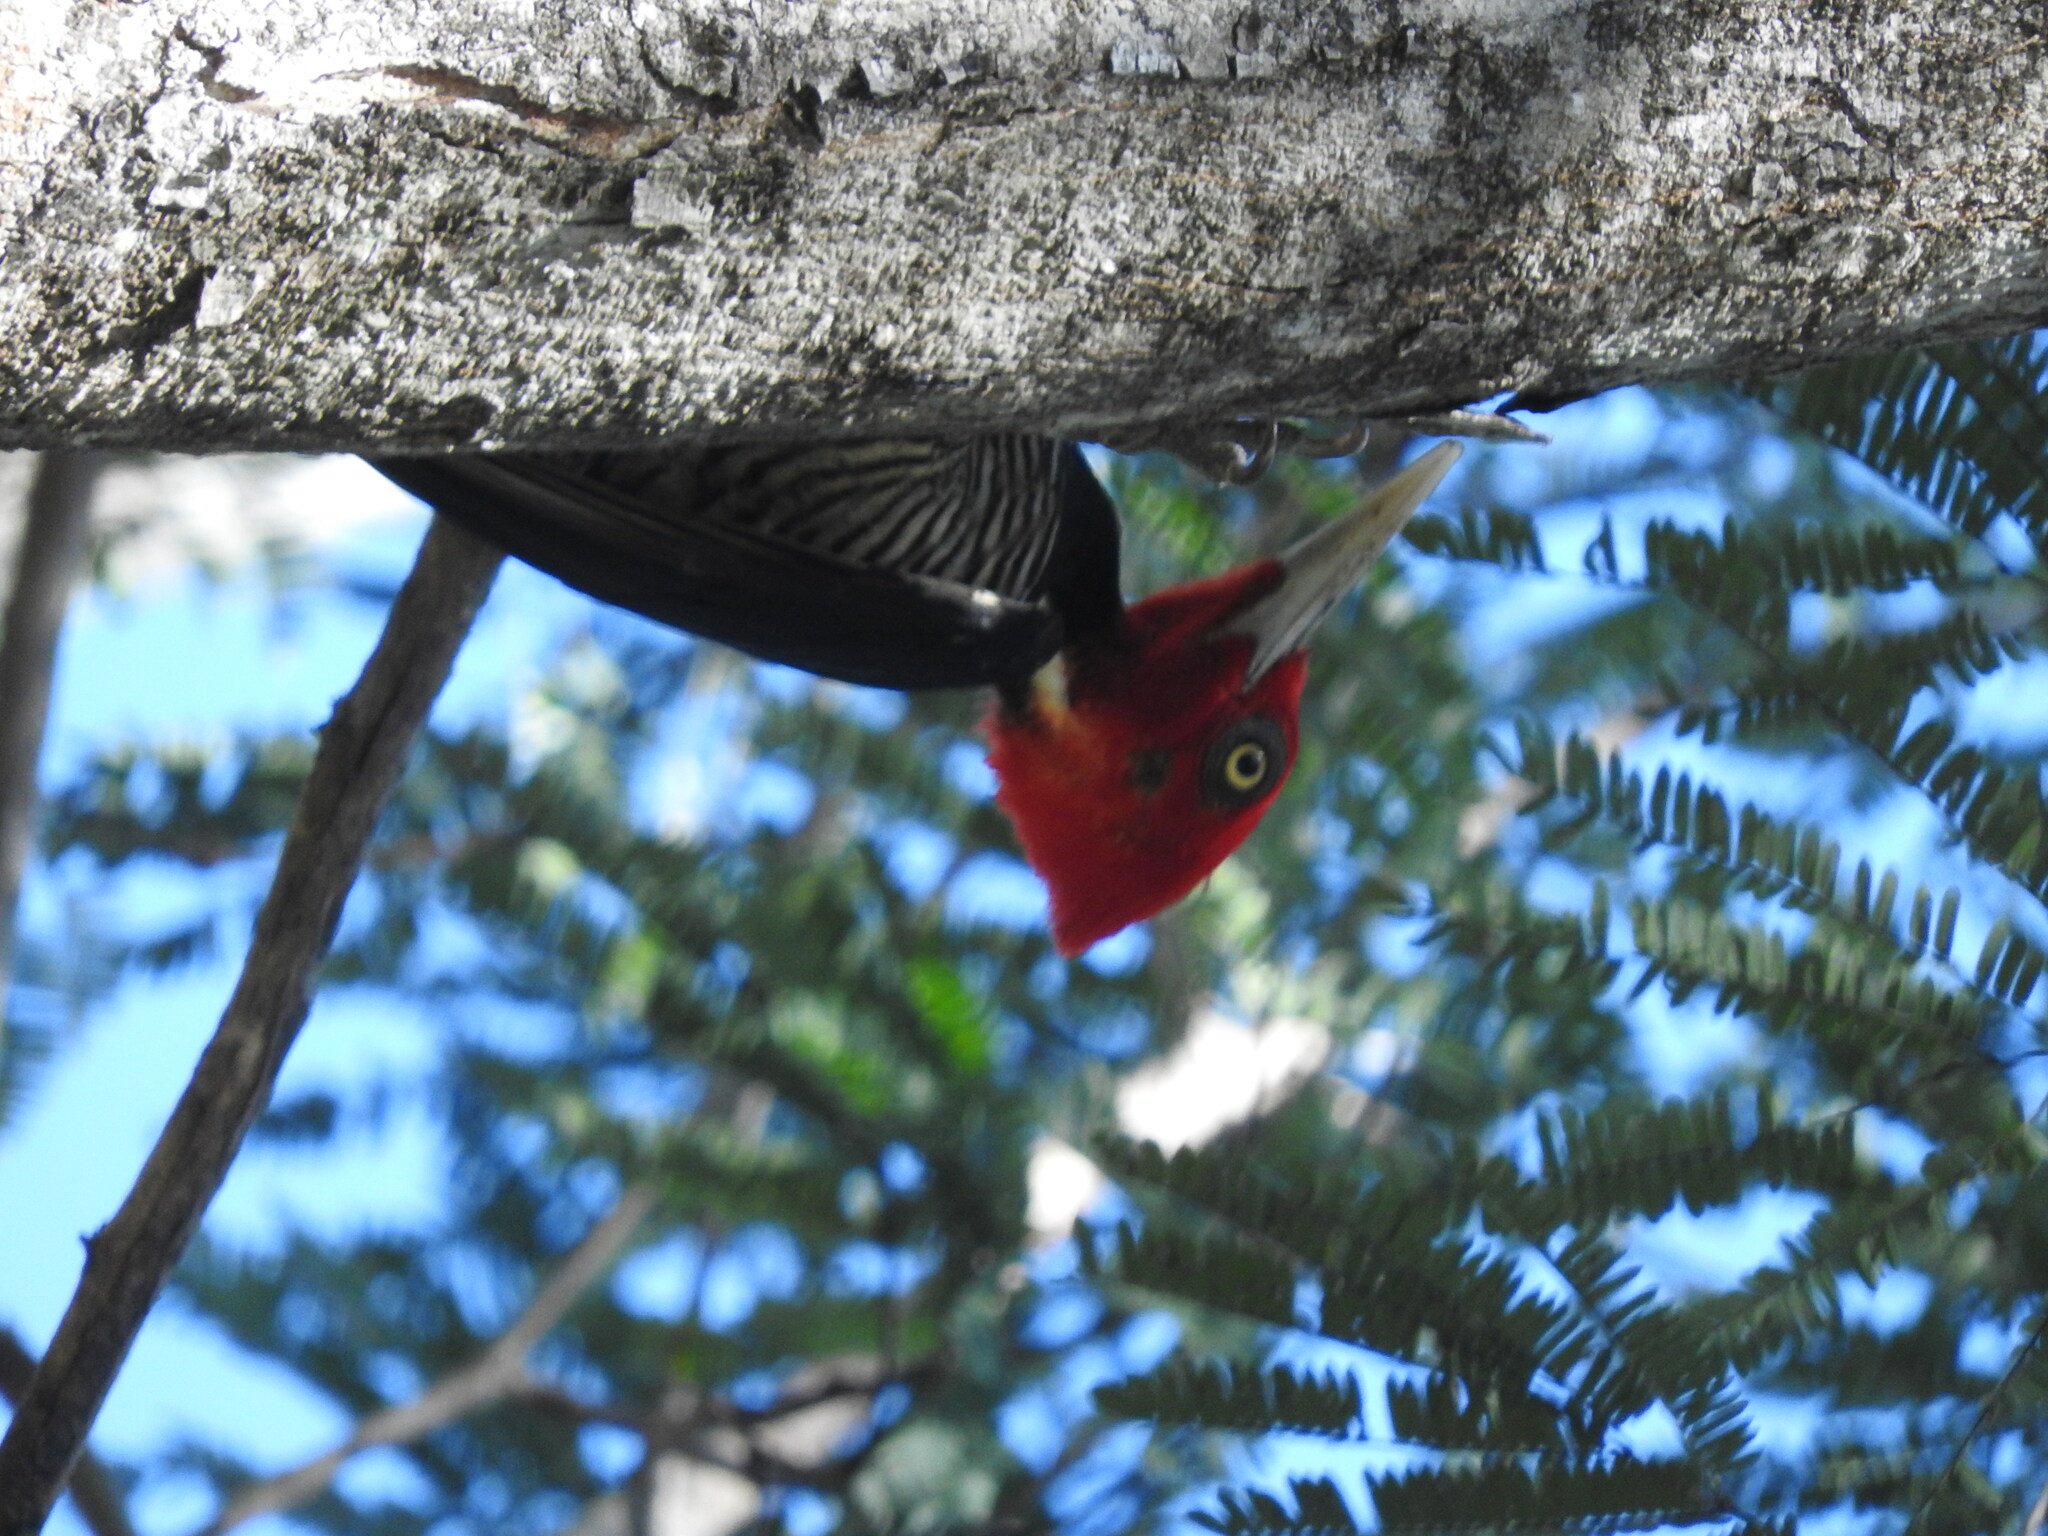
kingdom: Animalia
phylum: Chordata
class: Aves
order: Piciformes
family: Picidae
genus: Campephilus
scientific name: Campephilus guatemalensis
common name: Pale-billed woodpecker
